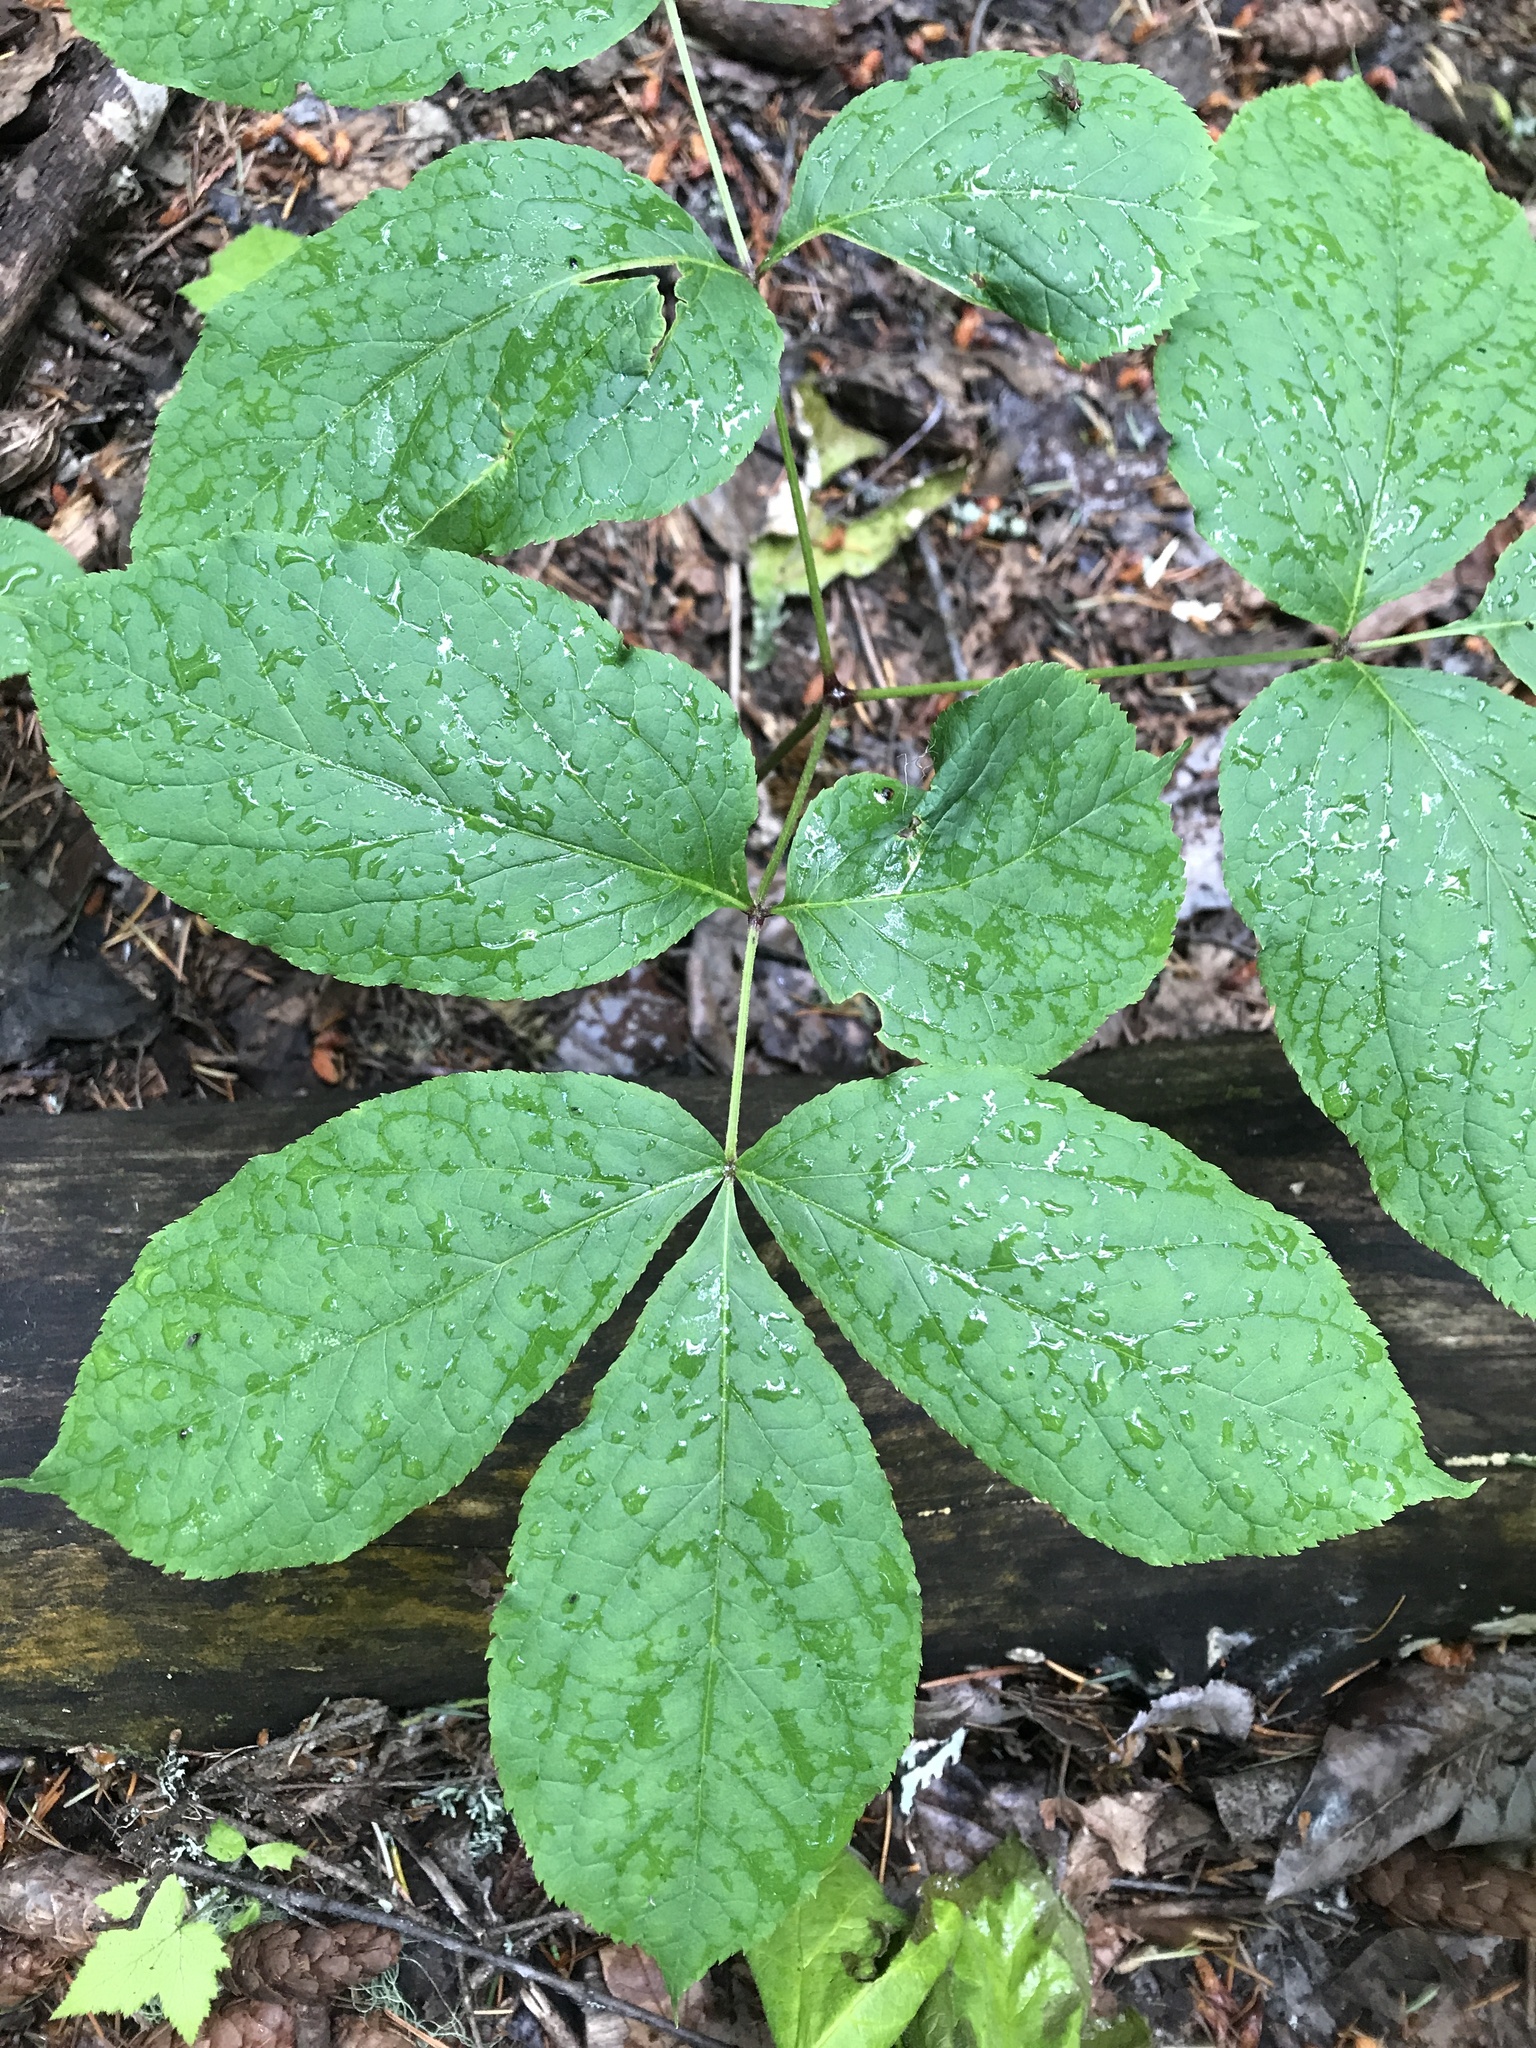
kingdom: Plantae
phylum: Tracheophyta
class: Magnoliopsida
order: Apiales
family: Araliaceae
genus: Aralia
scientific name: Aralia nudicaulis
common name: Wild sarsaparilla
